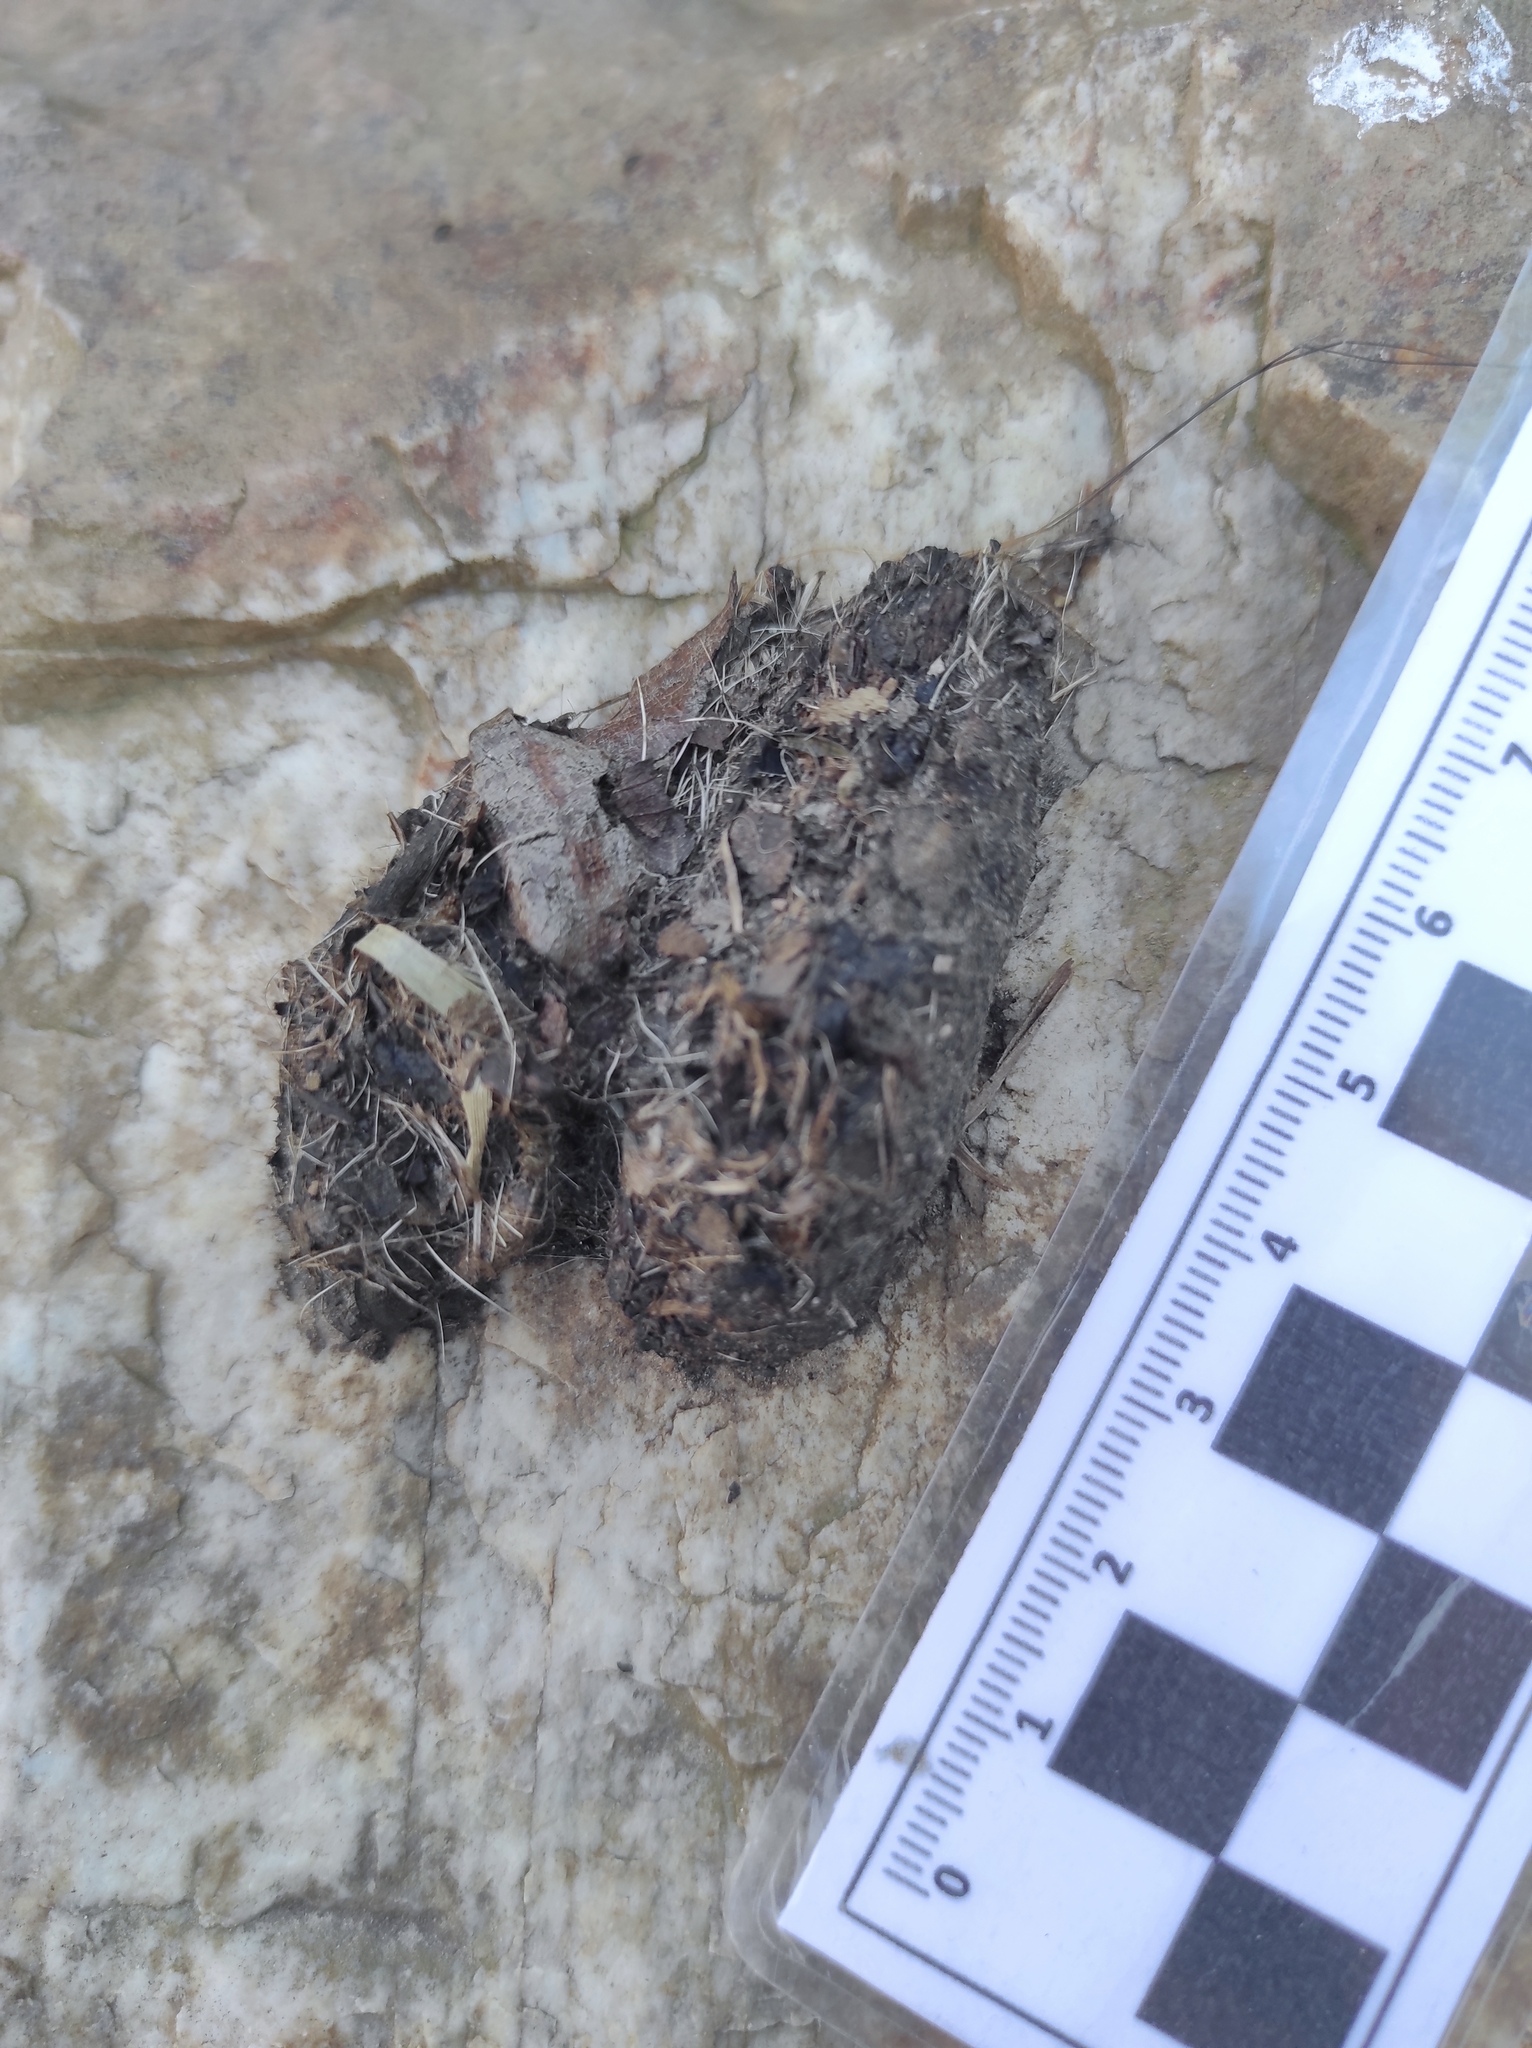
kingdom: Animalia
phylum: Chordata
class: Mammalia
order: Carnivora
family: Mustelidae
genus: Lutra
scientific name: Lutra lutra
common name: European otter
